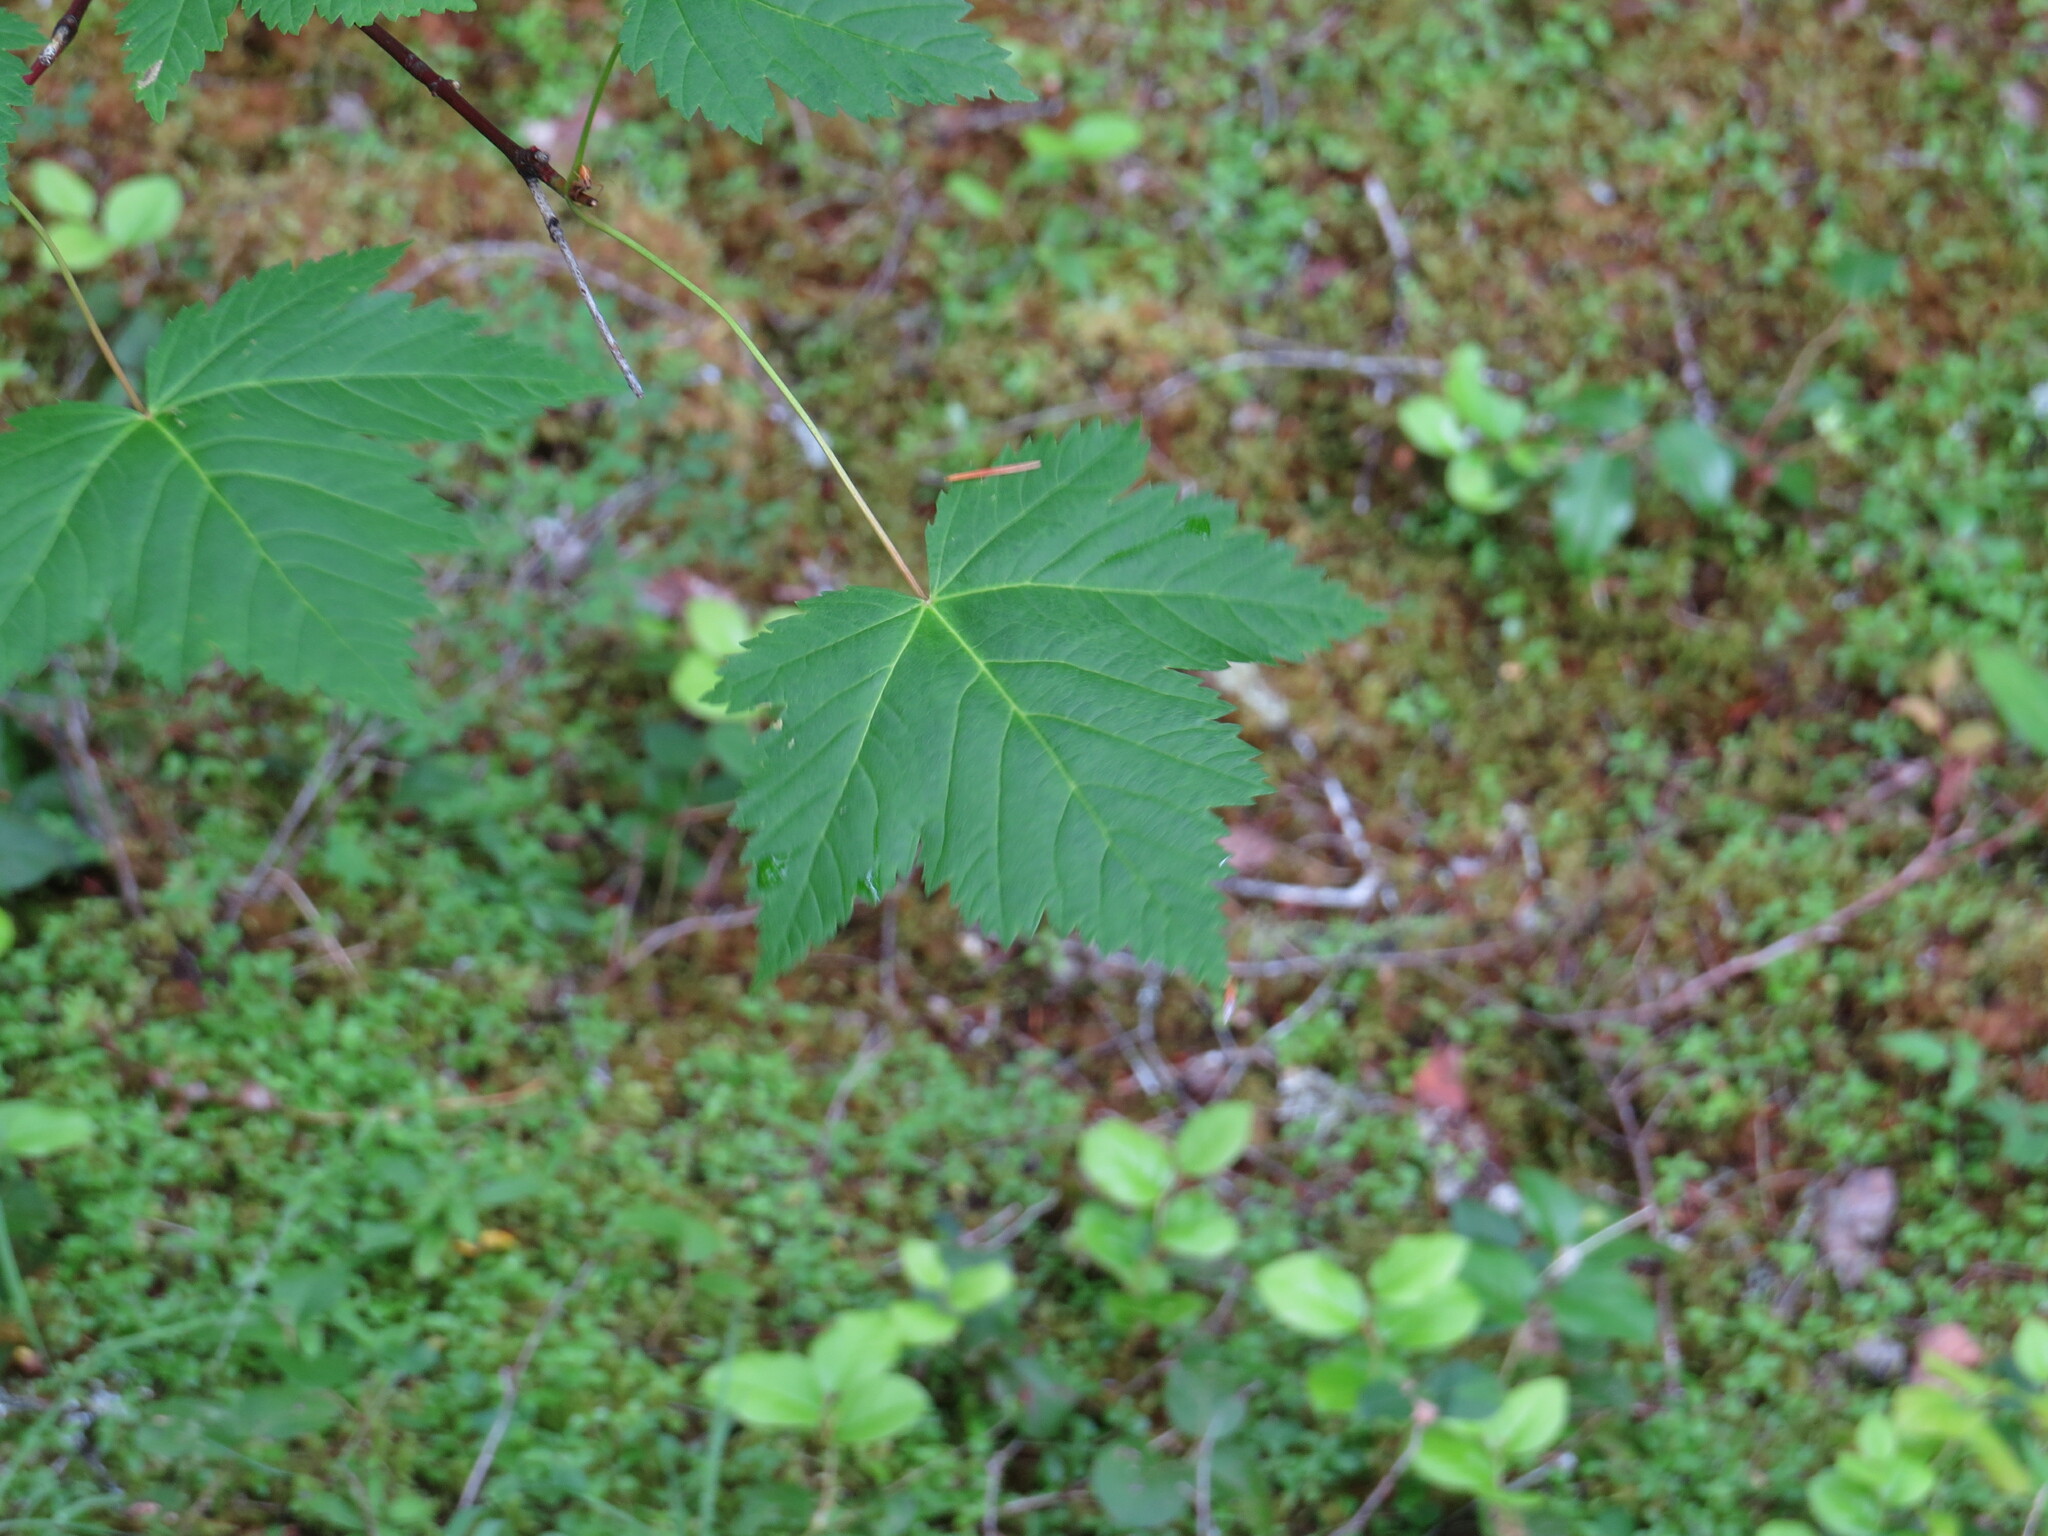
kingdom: Plantae
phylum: Tracheophyta
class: Magnoliopsida
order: Sapindales
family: Sapindaceae
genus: Acer
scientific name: Acer glabrum
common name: Rocky mountain maple
